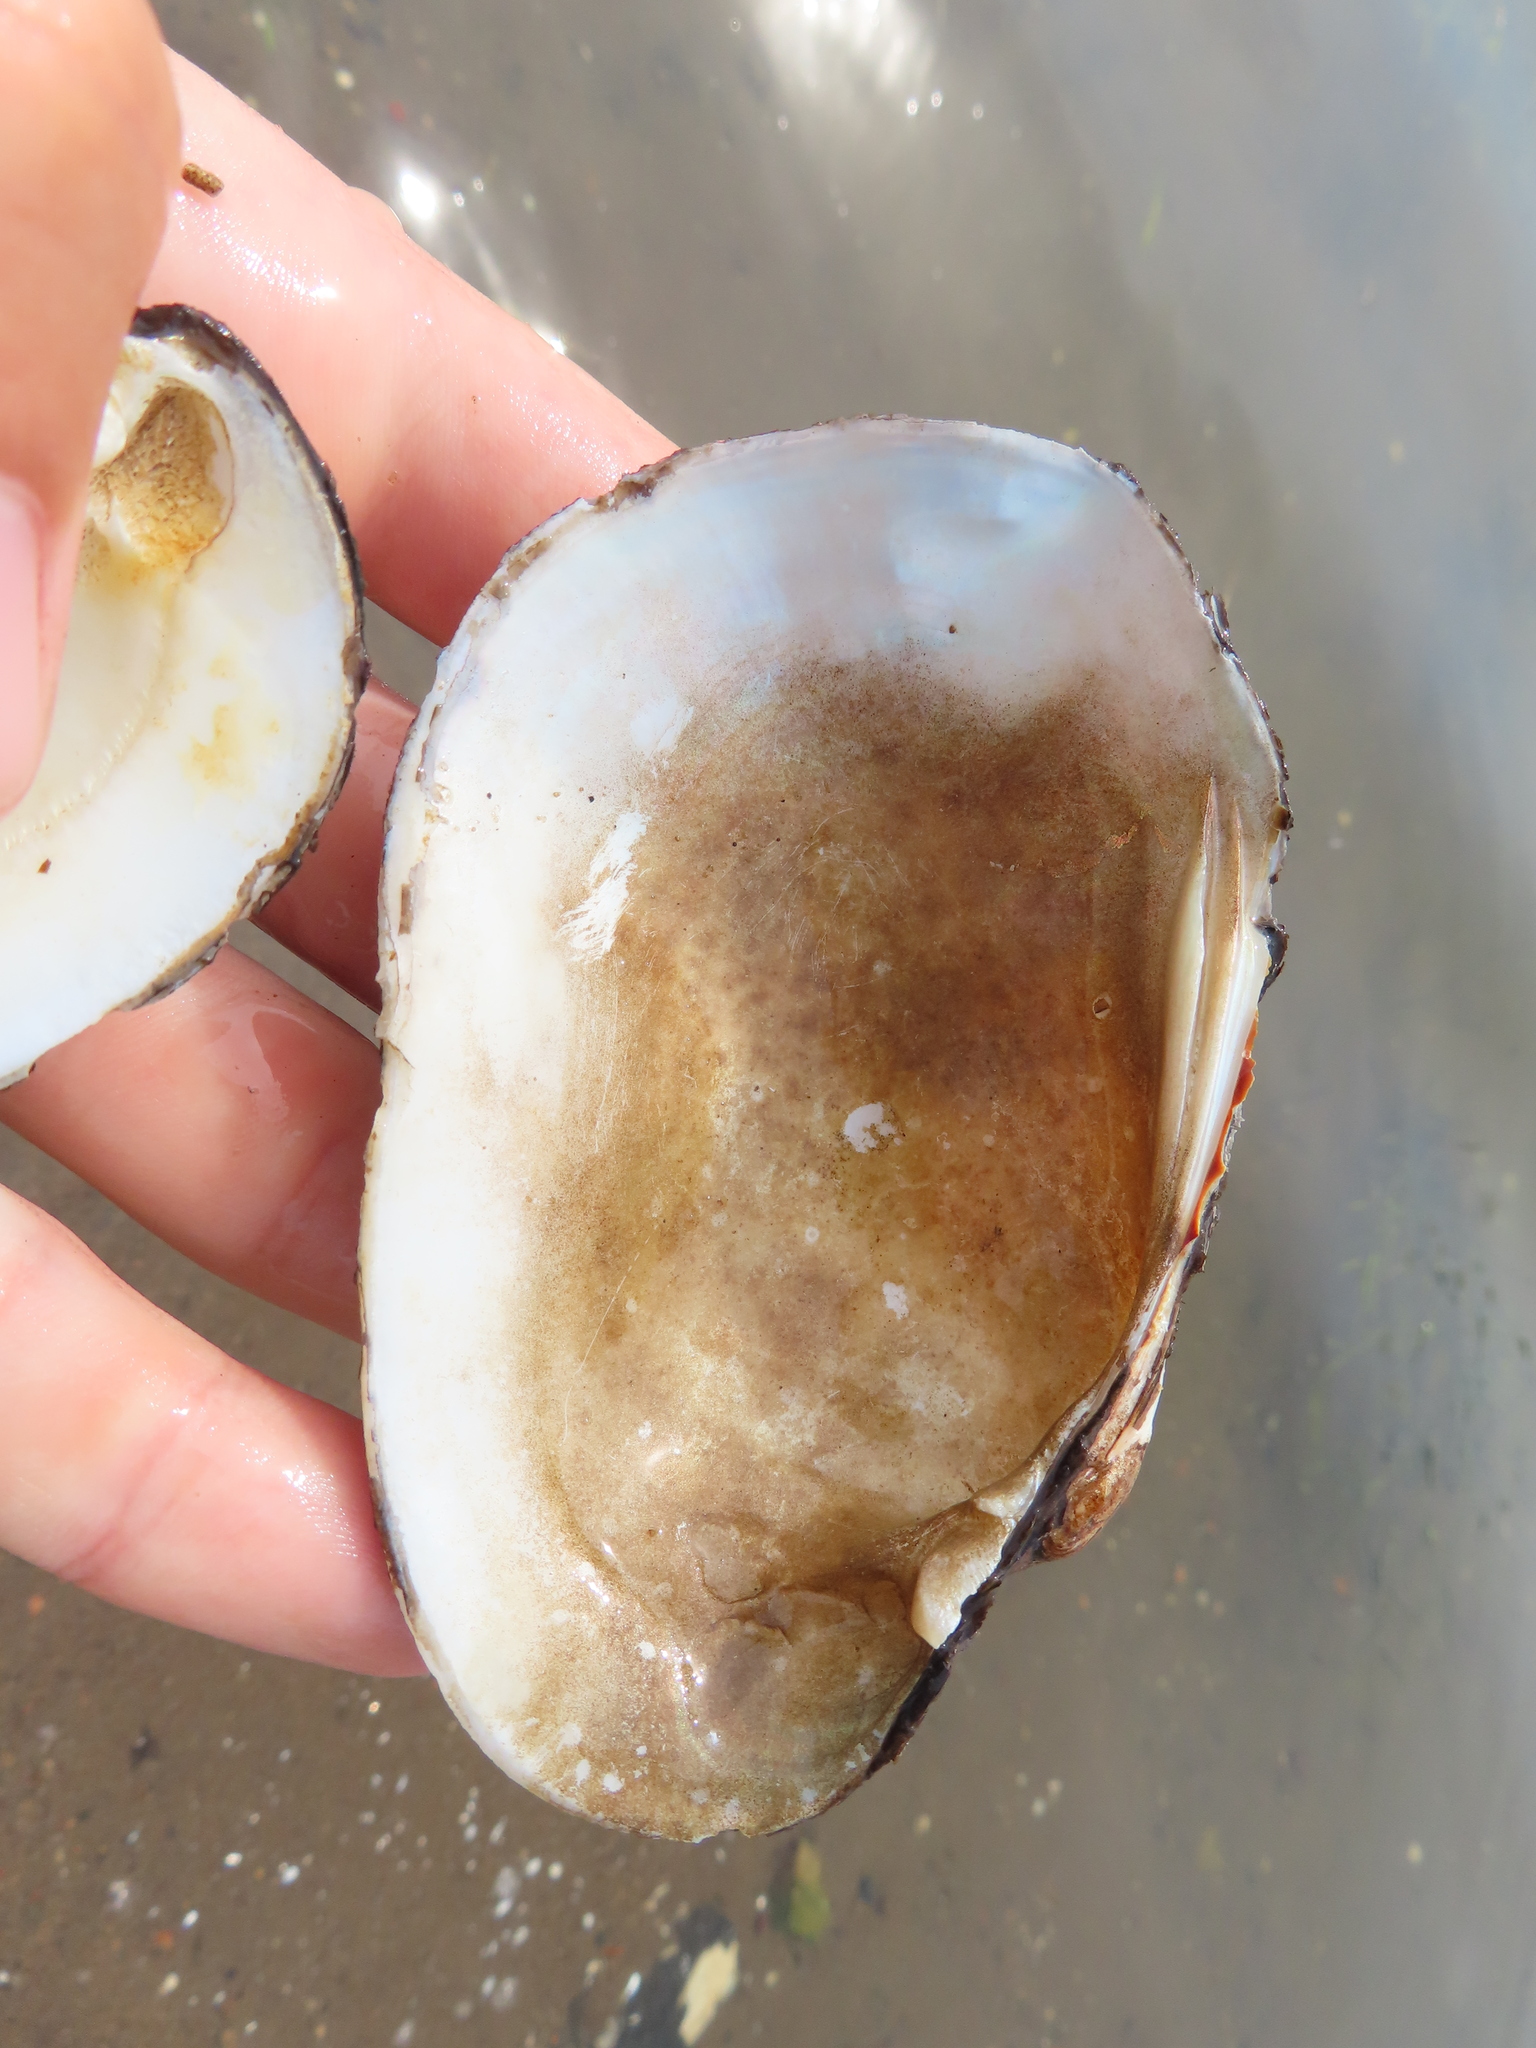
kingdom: Animalia
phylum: Mollusca
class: Bivalvia
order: Unionida
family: Unionidae
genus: Lampsilis
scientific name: Lampsilis siliquoidea
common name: Fatmucket
